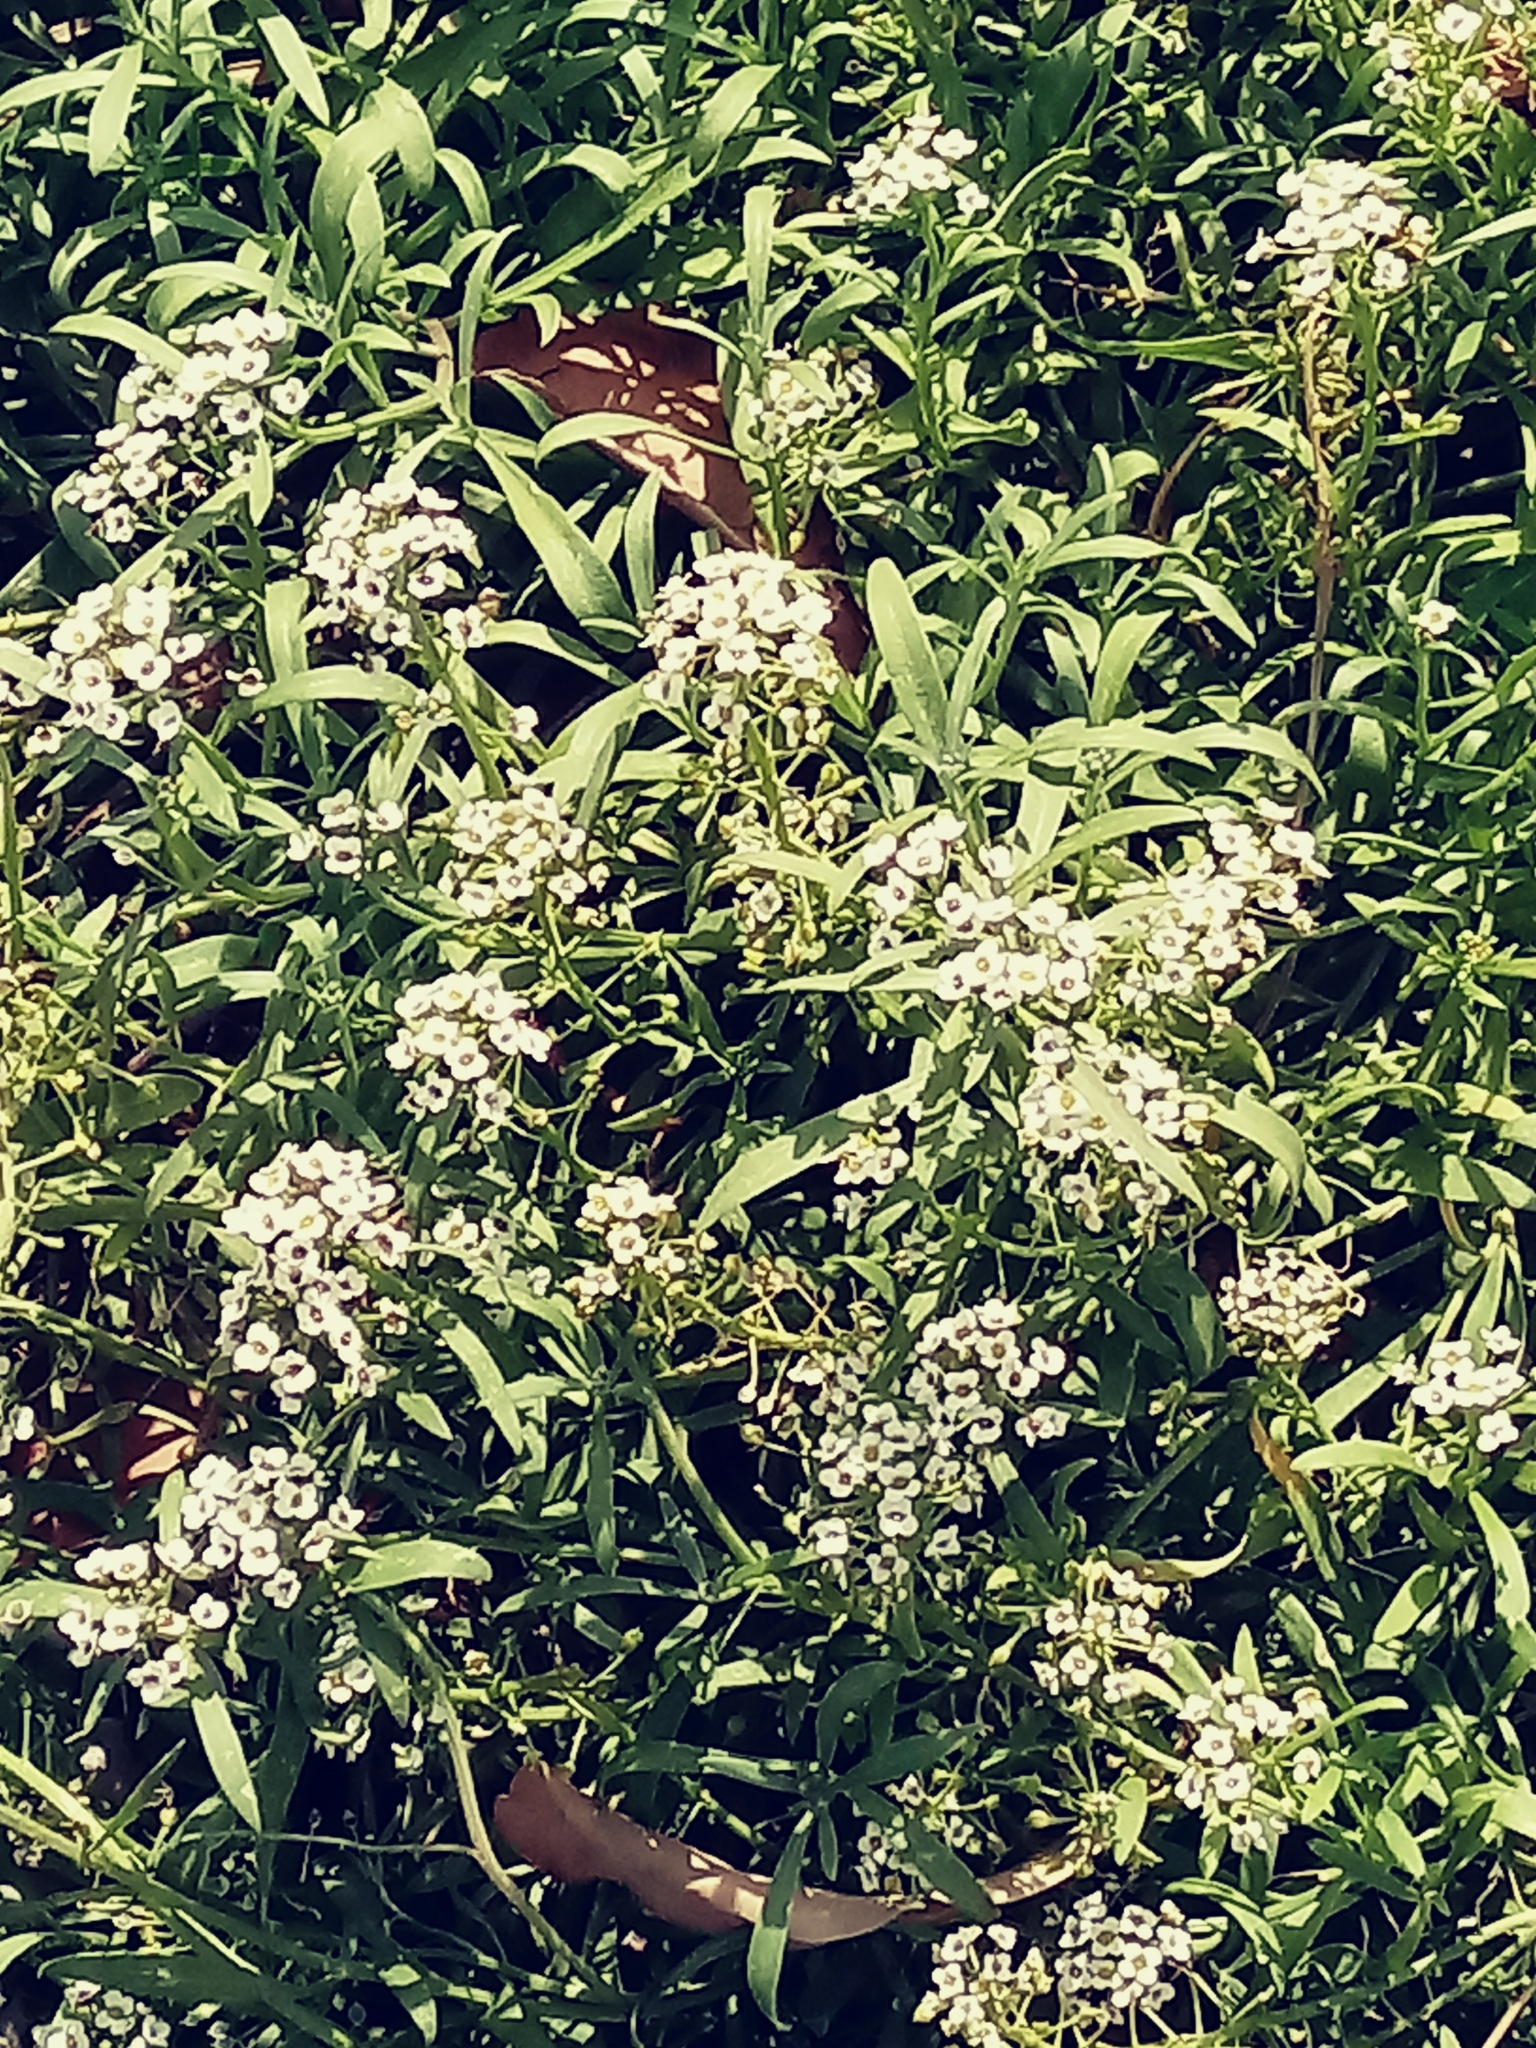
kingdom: Plantae
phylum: Tracheophyta
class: Magnoliopsida
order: Brassicales
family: Brassicaceae
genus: Lobularia
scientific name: Lobularia maritima
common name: Sweet alison
